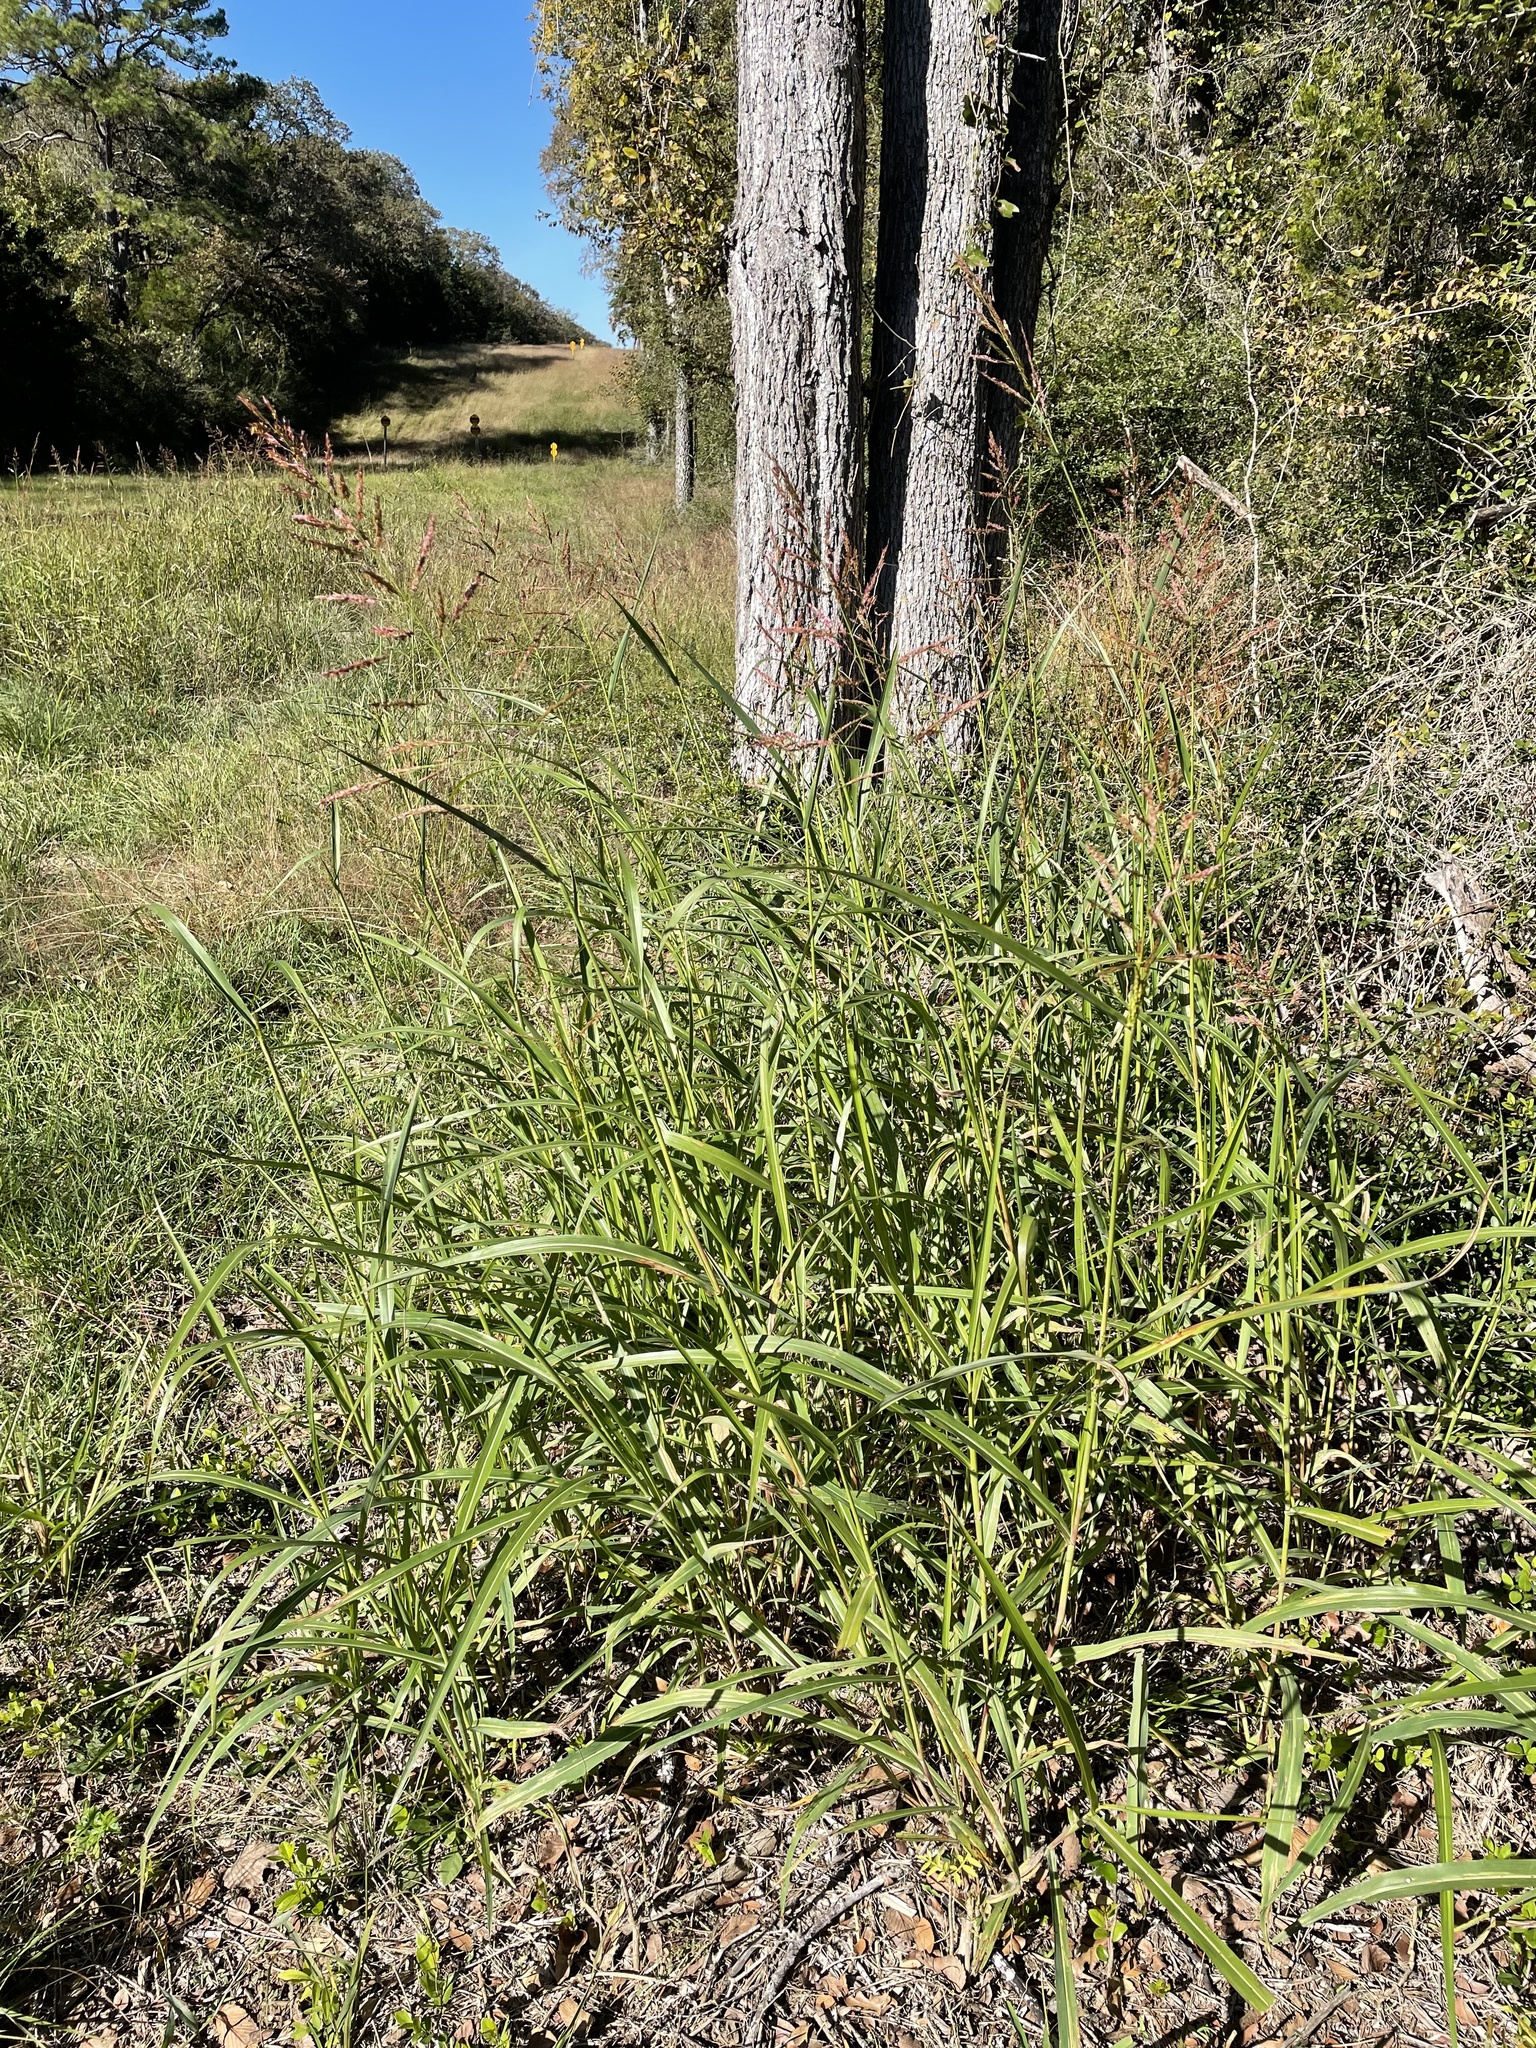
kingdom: Plantae
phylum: Tracheophyta
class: Liliopsida
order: Poales
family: Poaceae
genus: Sorghum
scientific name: Sorghum halepense
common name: Johnson-grass
